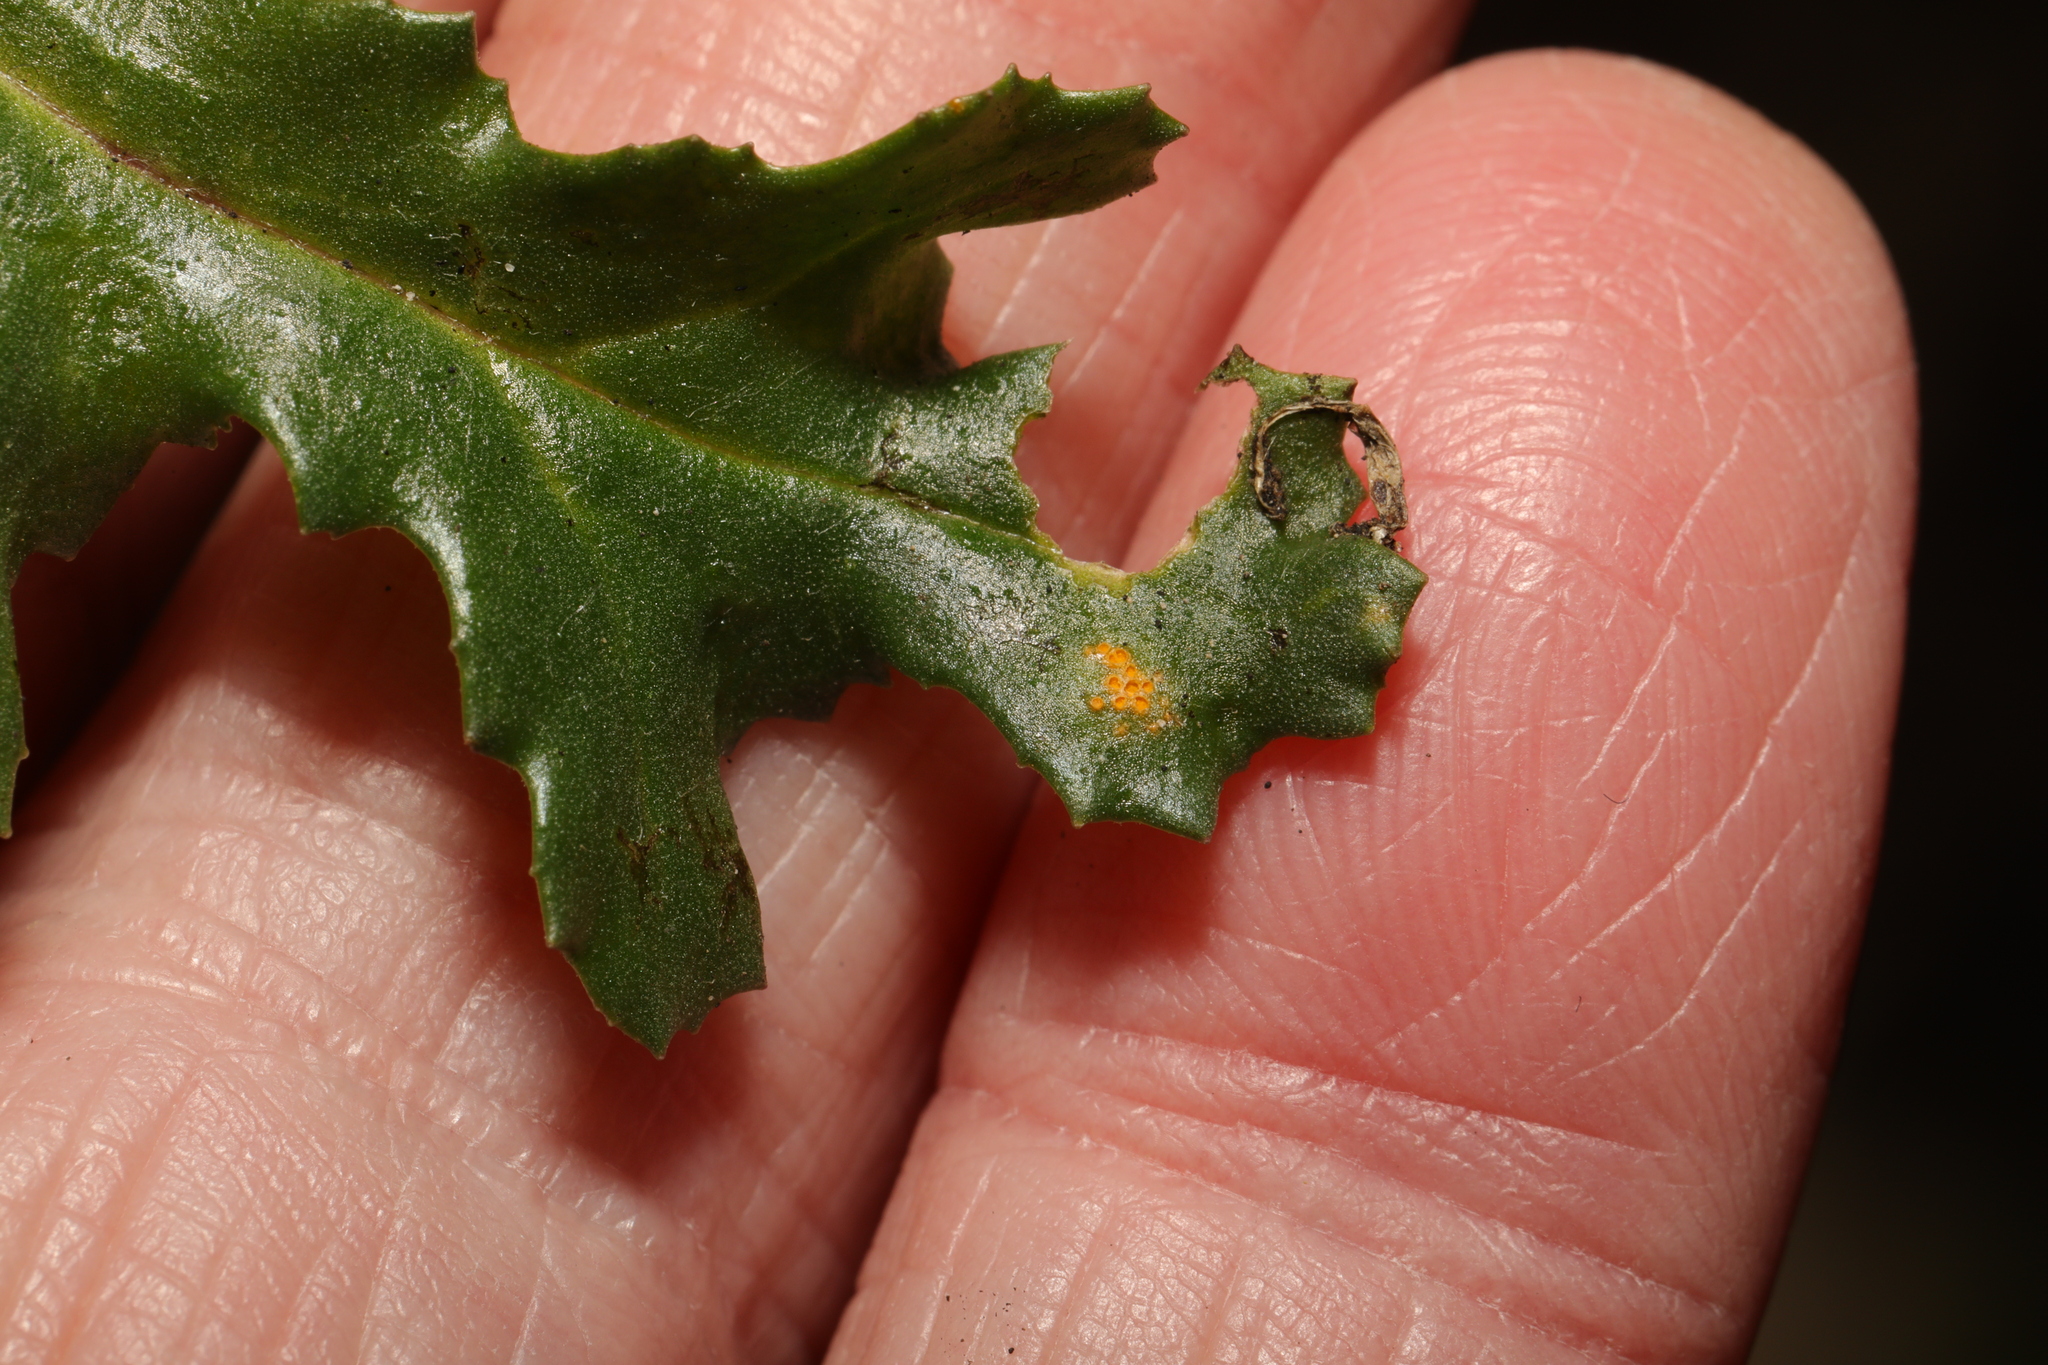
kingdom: Fungi
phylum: Basidiomycota
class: Pucciniomycetes
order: Pucciniales
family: Pucciniaceae
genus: Puccinia
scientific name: Puccinia lagenophorae
